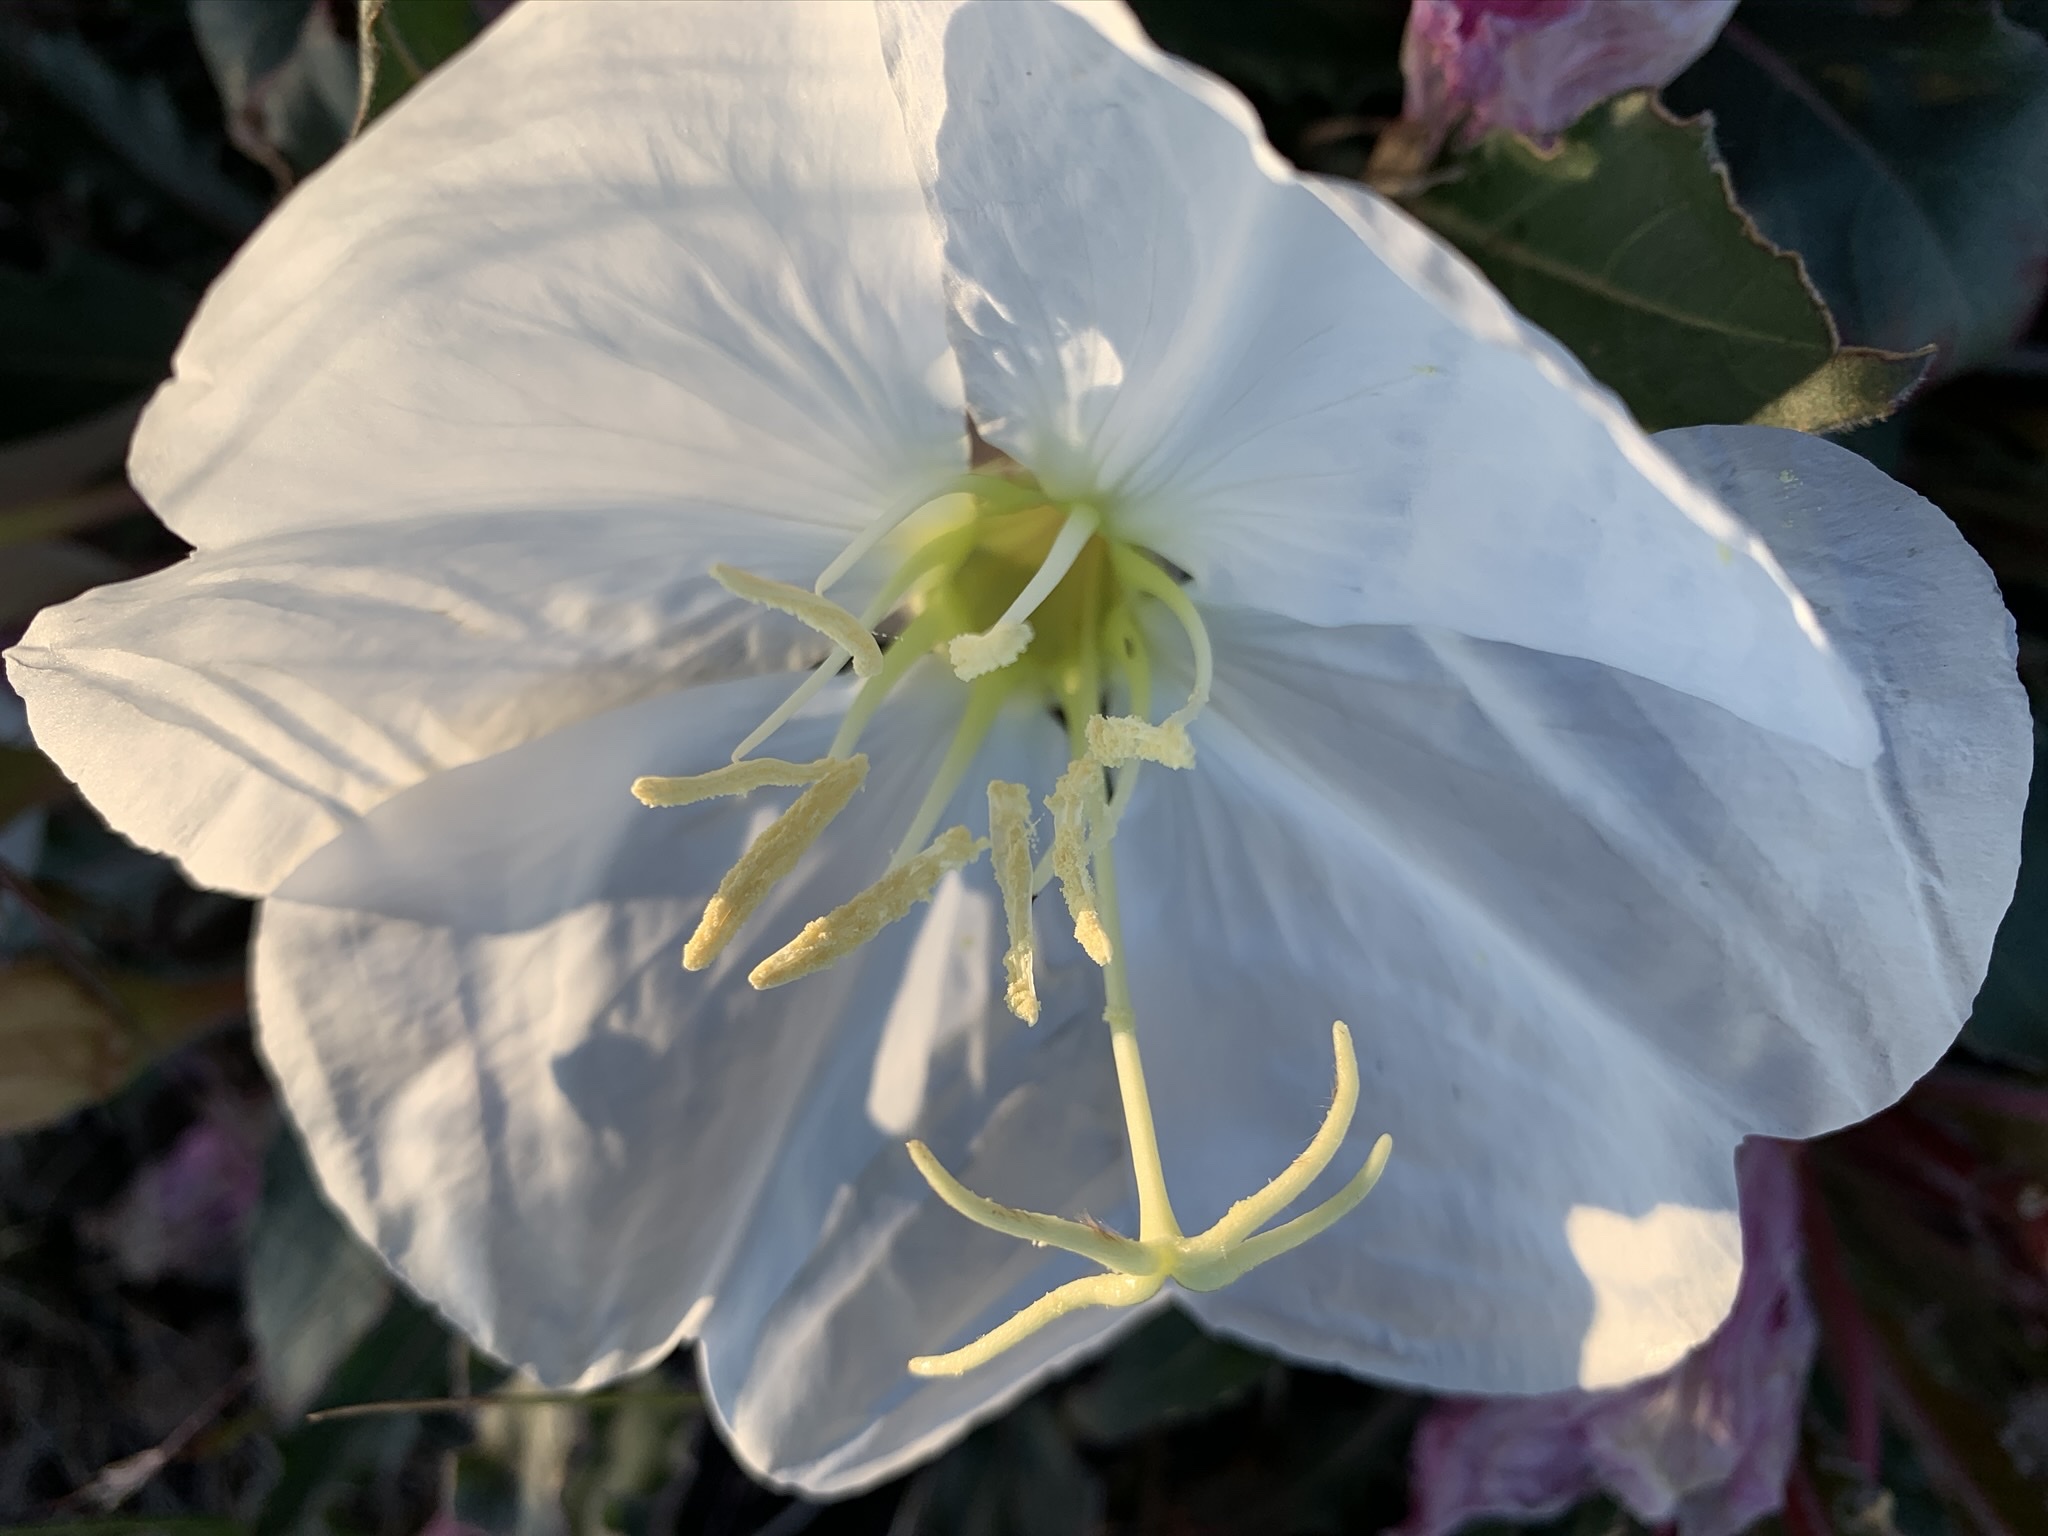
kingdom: Plantae
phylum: Tracheophyta
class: Magnoliopsida
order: Myrtales
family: Onagraceae
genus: Oenothera
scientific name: Oenothera cespitosa
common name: Tufted evening-primrose
